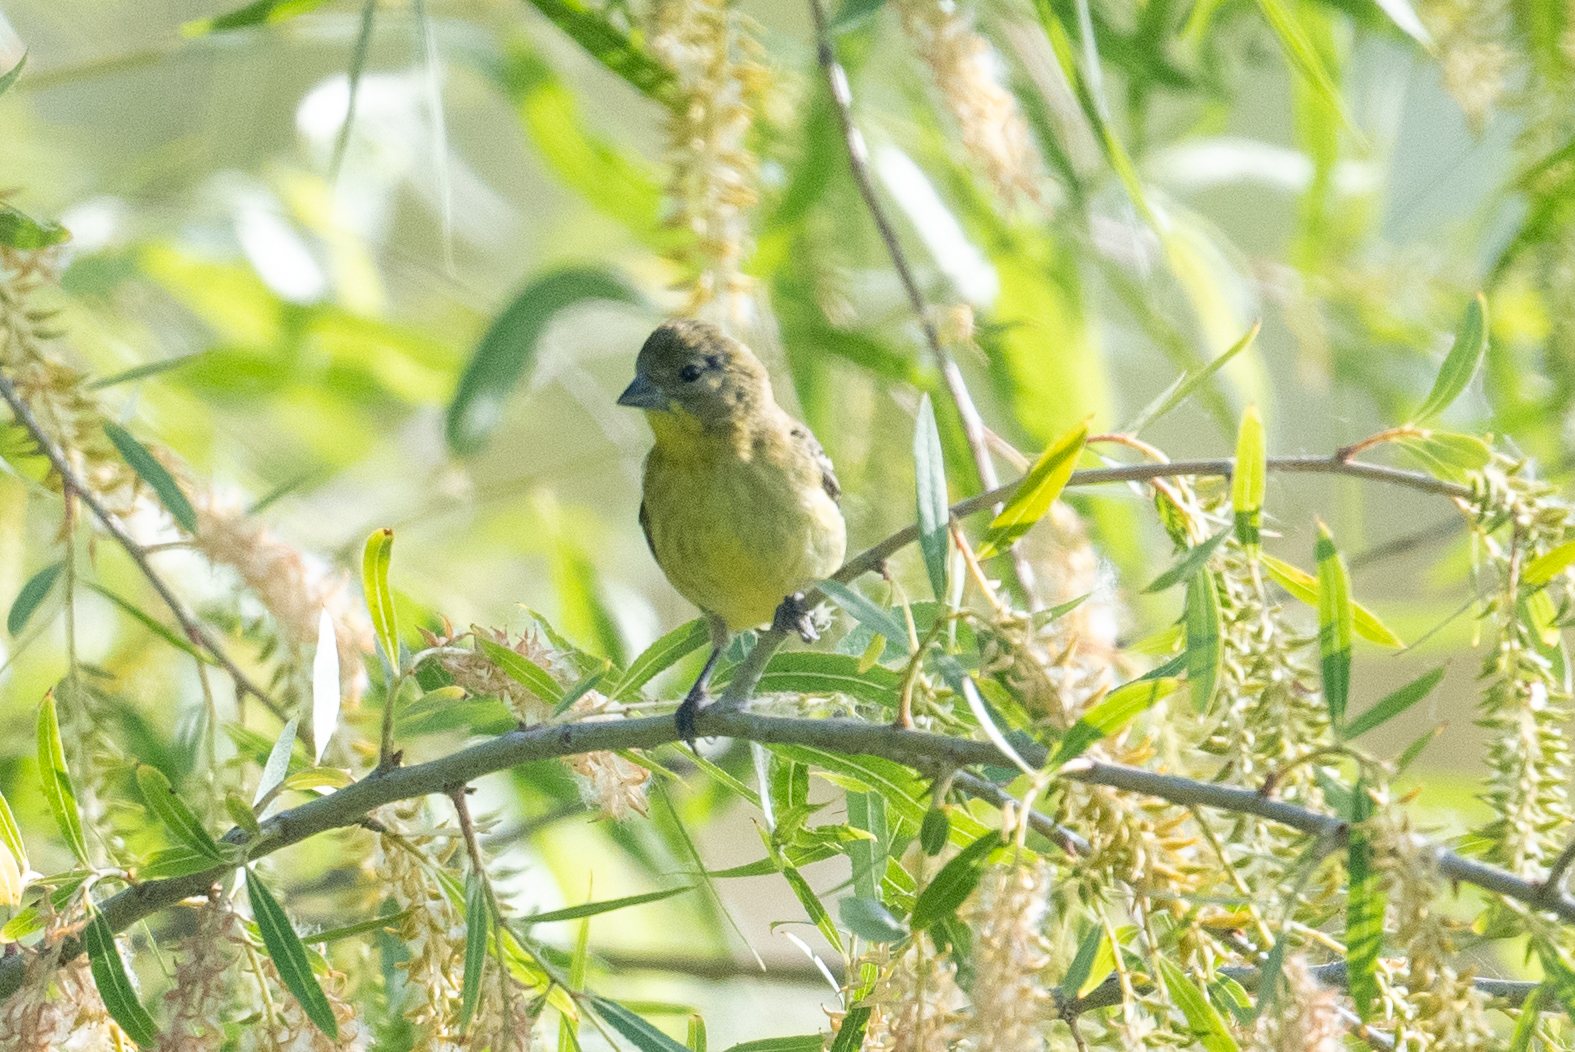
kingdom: Animalia
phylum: Chordata
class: Aves
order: Passeriformes
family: Fringillidae
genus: Spinus
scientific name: Spinus psaltria
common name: Lesser goldfinch
